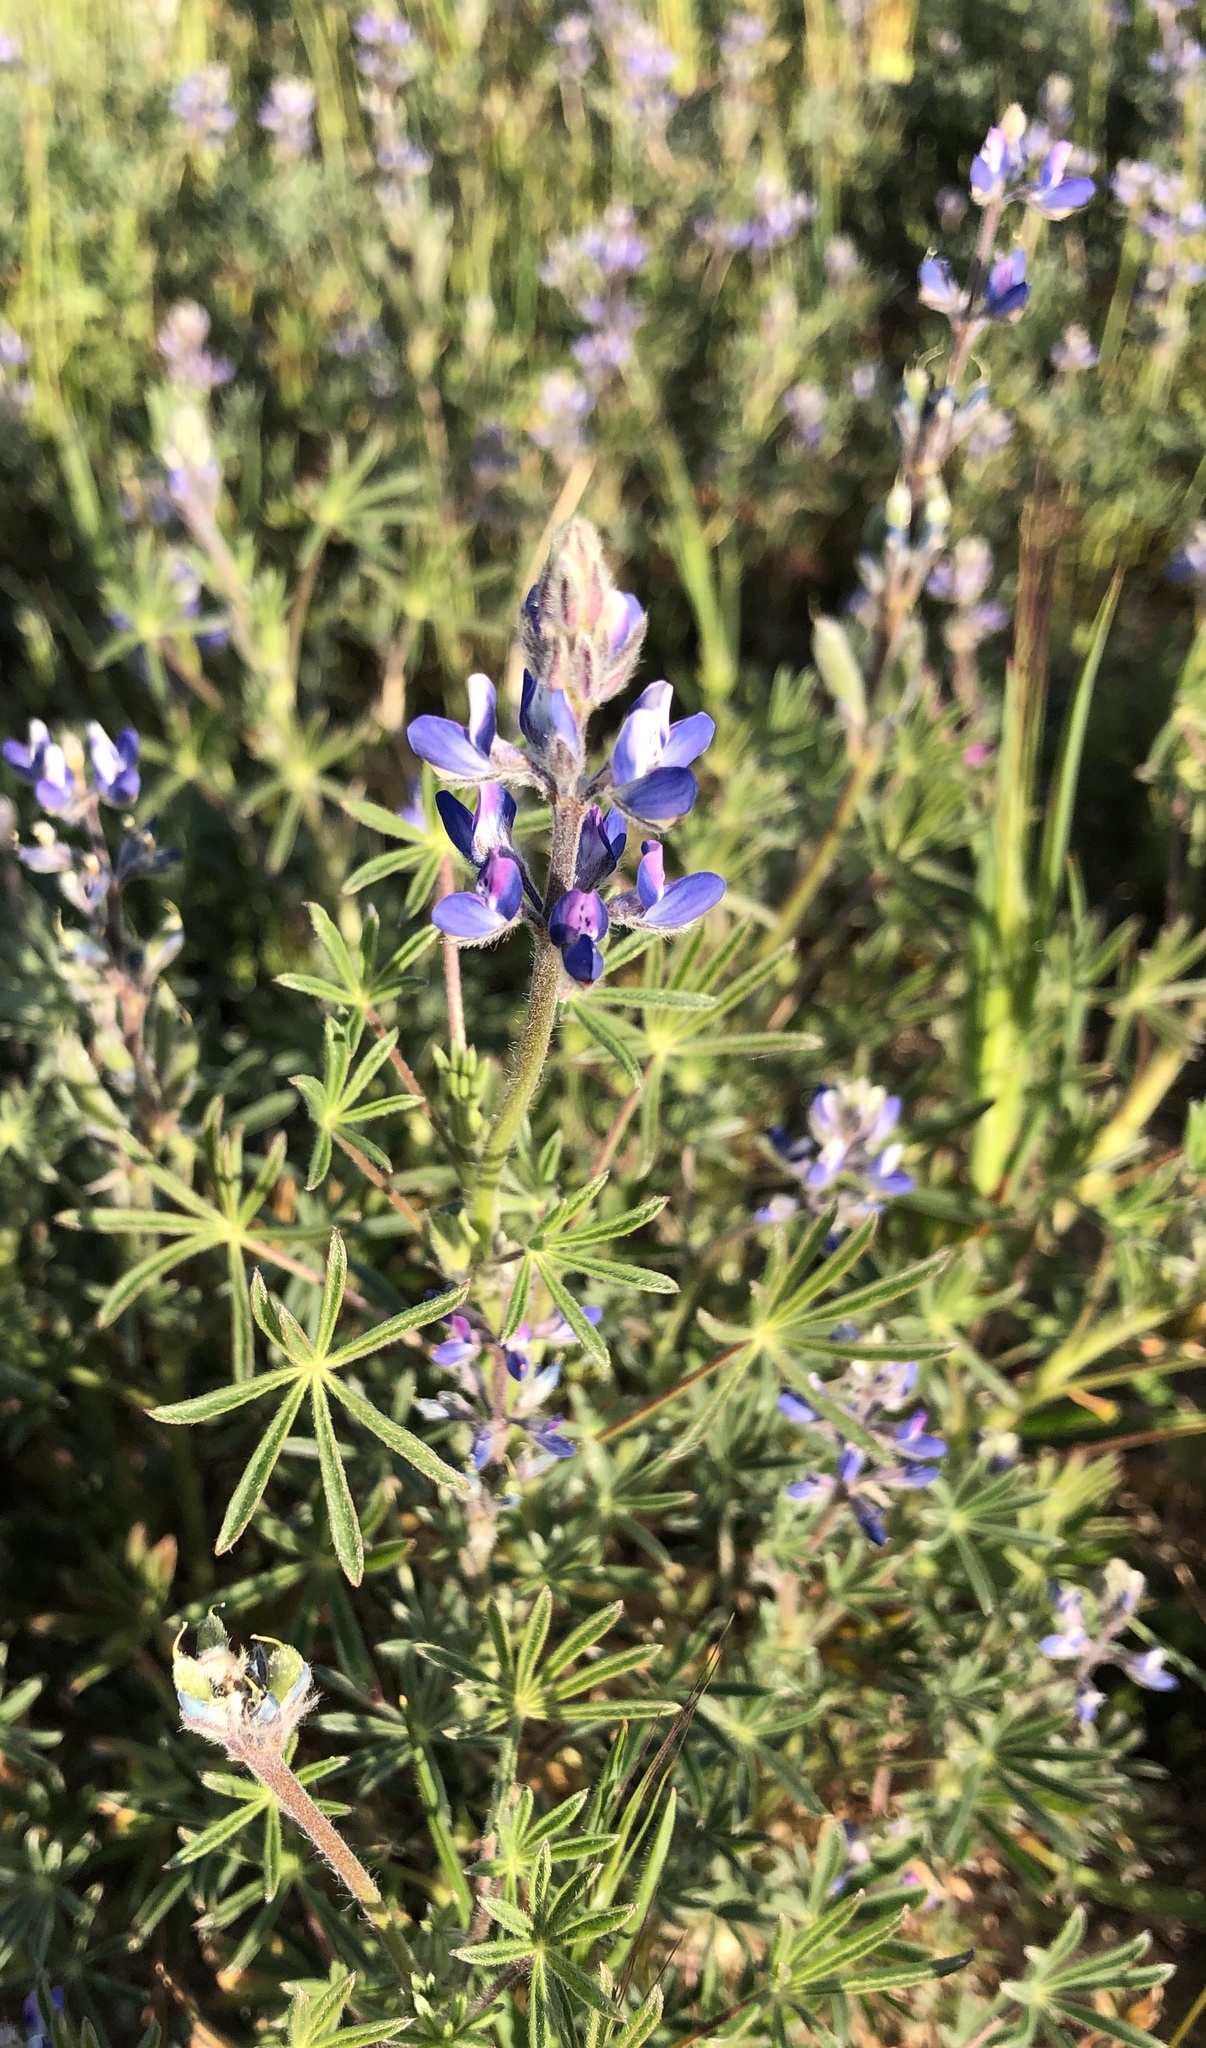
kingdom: Plantae
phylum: Tracheophyta
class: Magnoliopsida
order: Fabales
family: Fabaceae
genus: Lupinus
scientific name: Lupinus bicolor
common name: Miniature lupine
